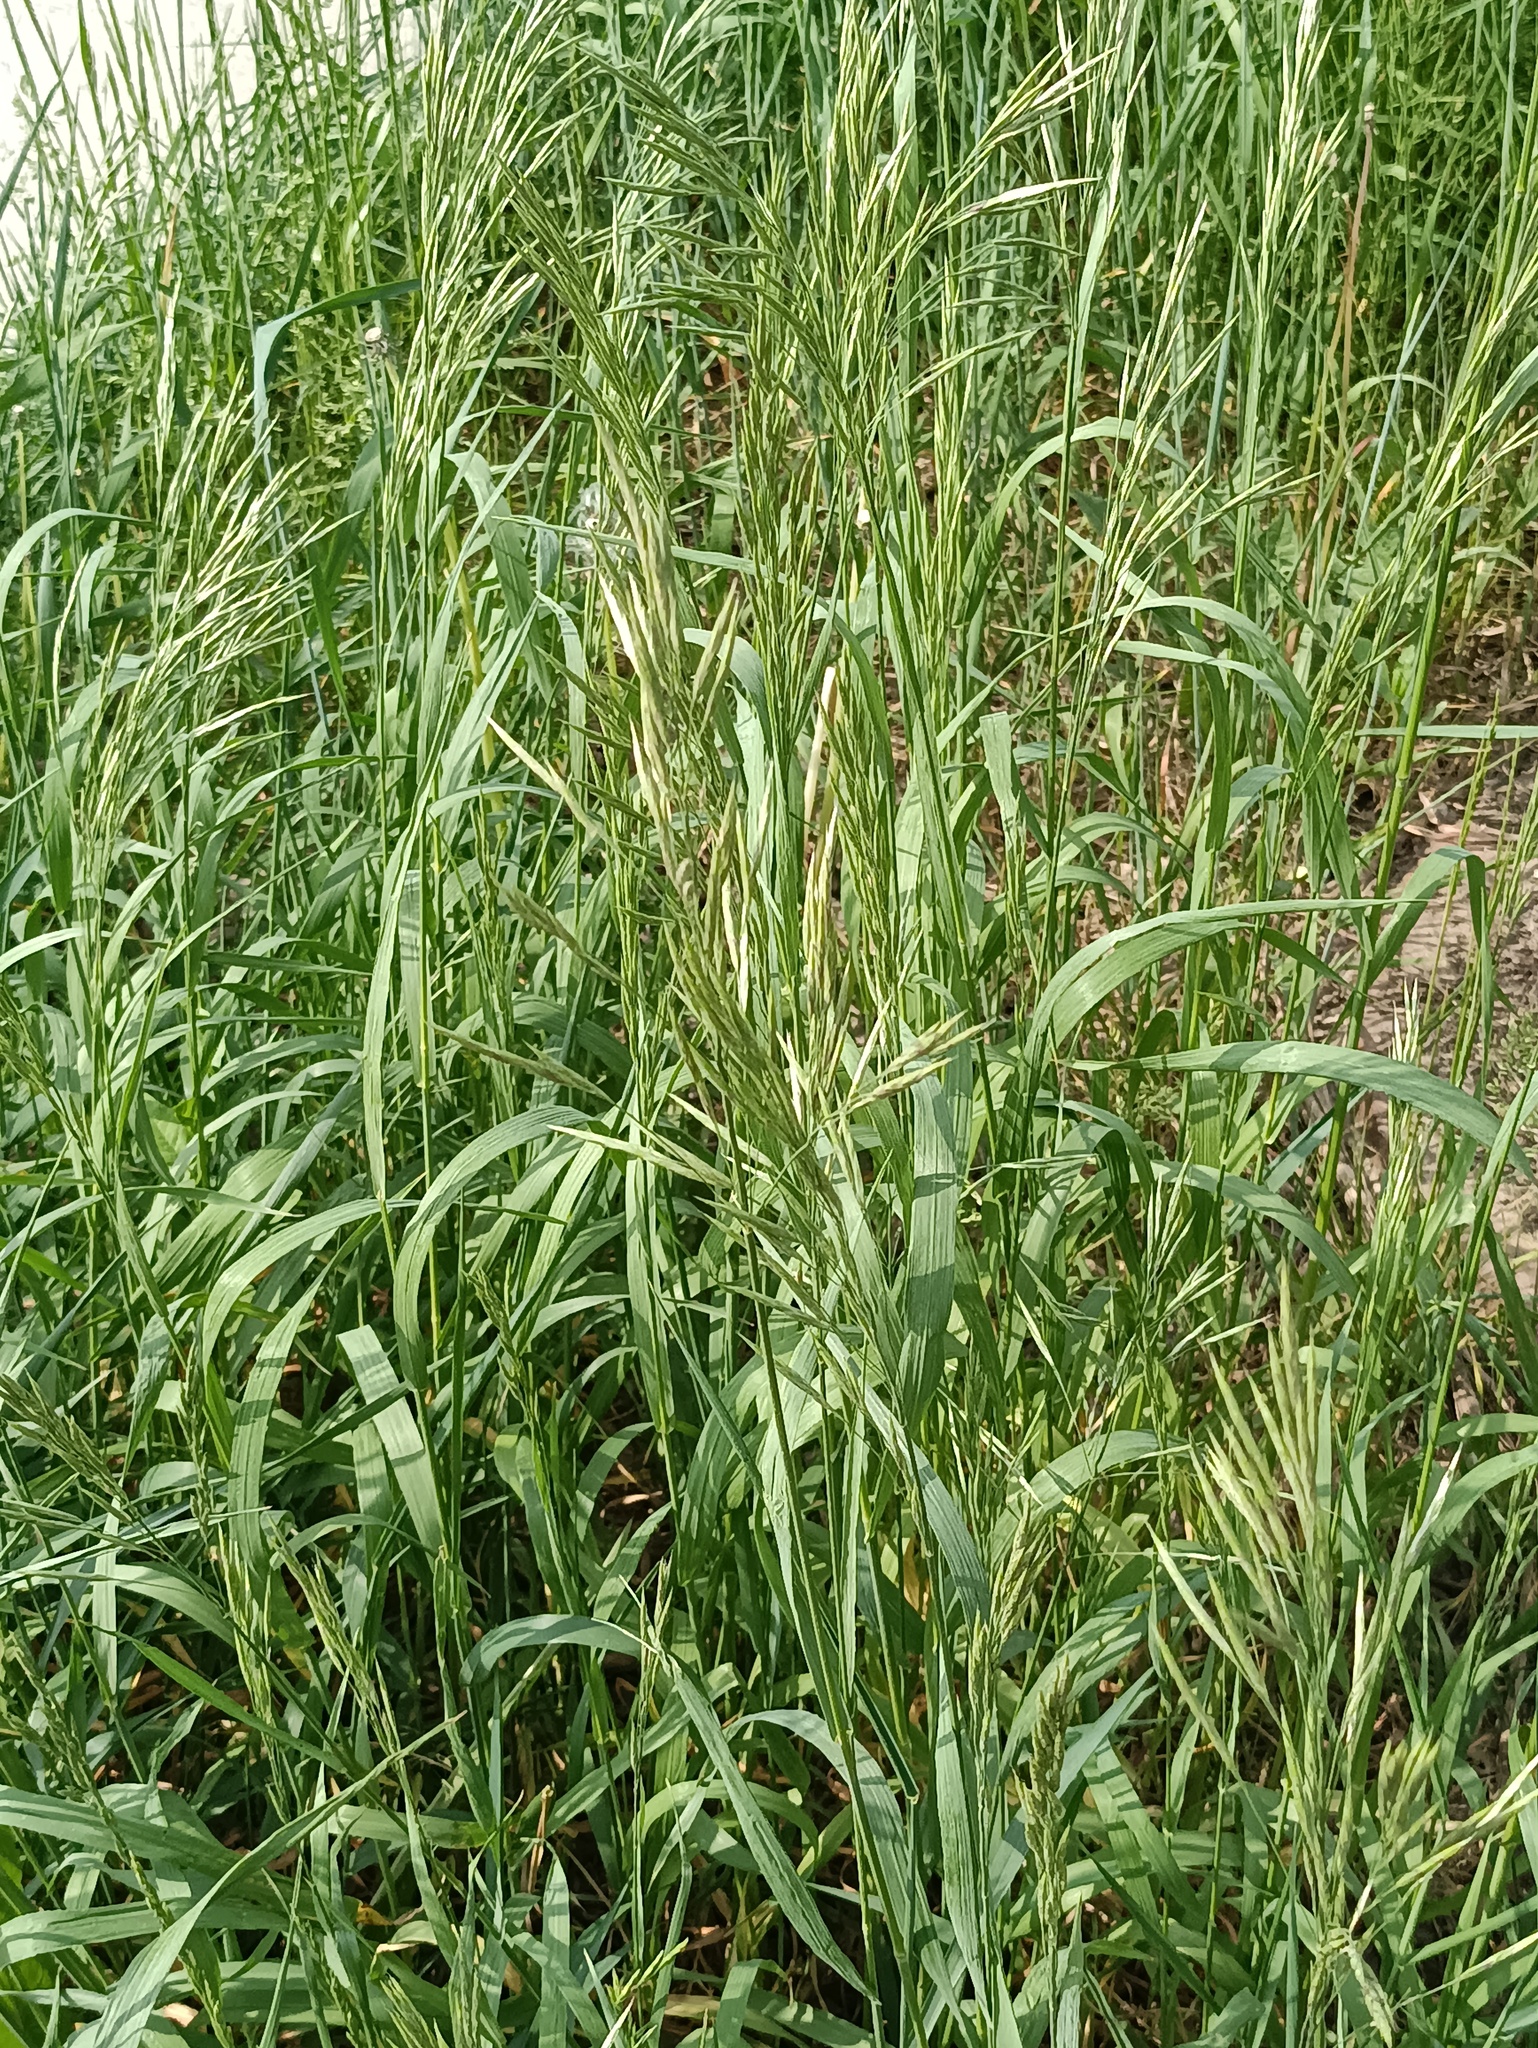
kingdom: Plantae
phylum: Tracheophyta
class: Liliopsida
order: Poales
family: Poaceae
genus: Bromus
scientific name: Bromus inermis
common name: Smooth brome
